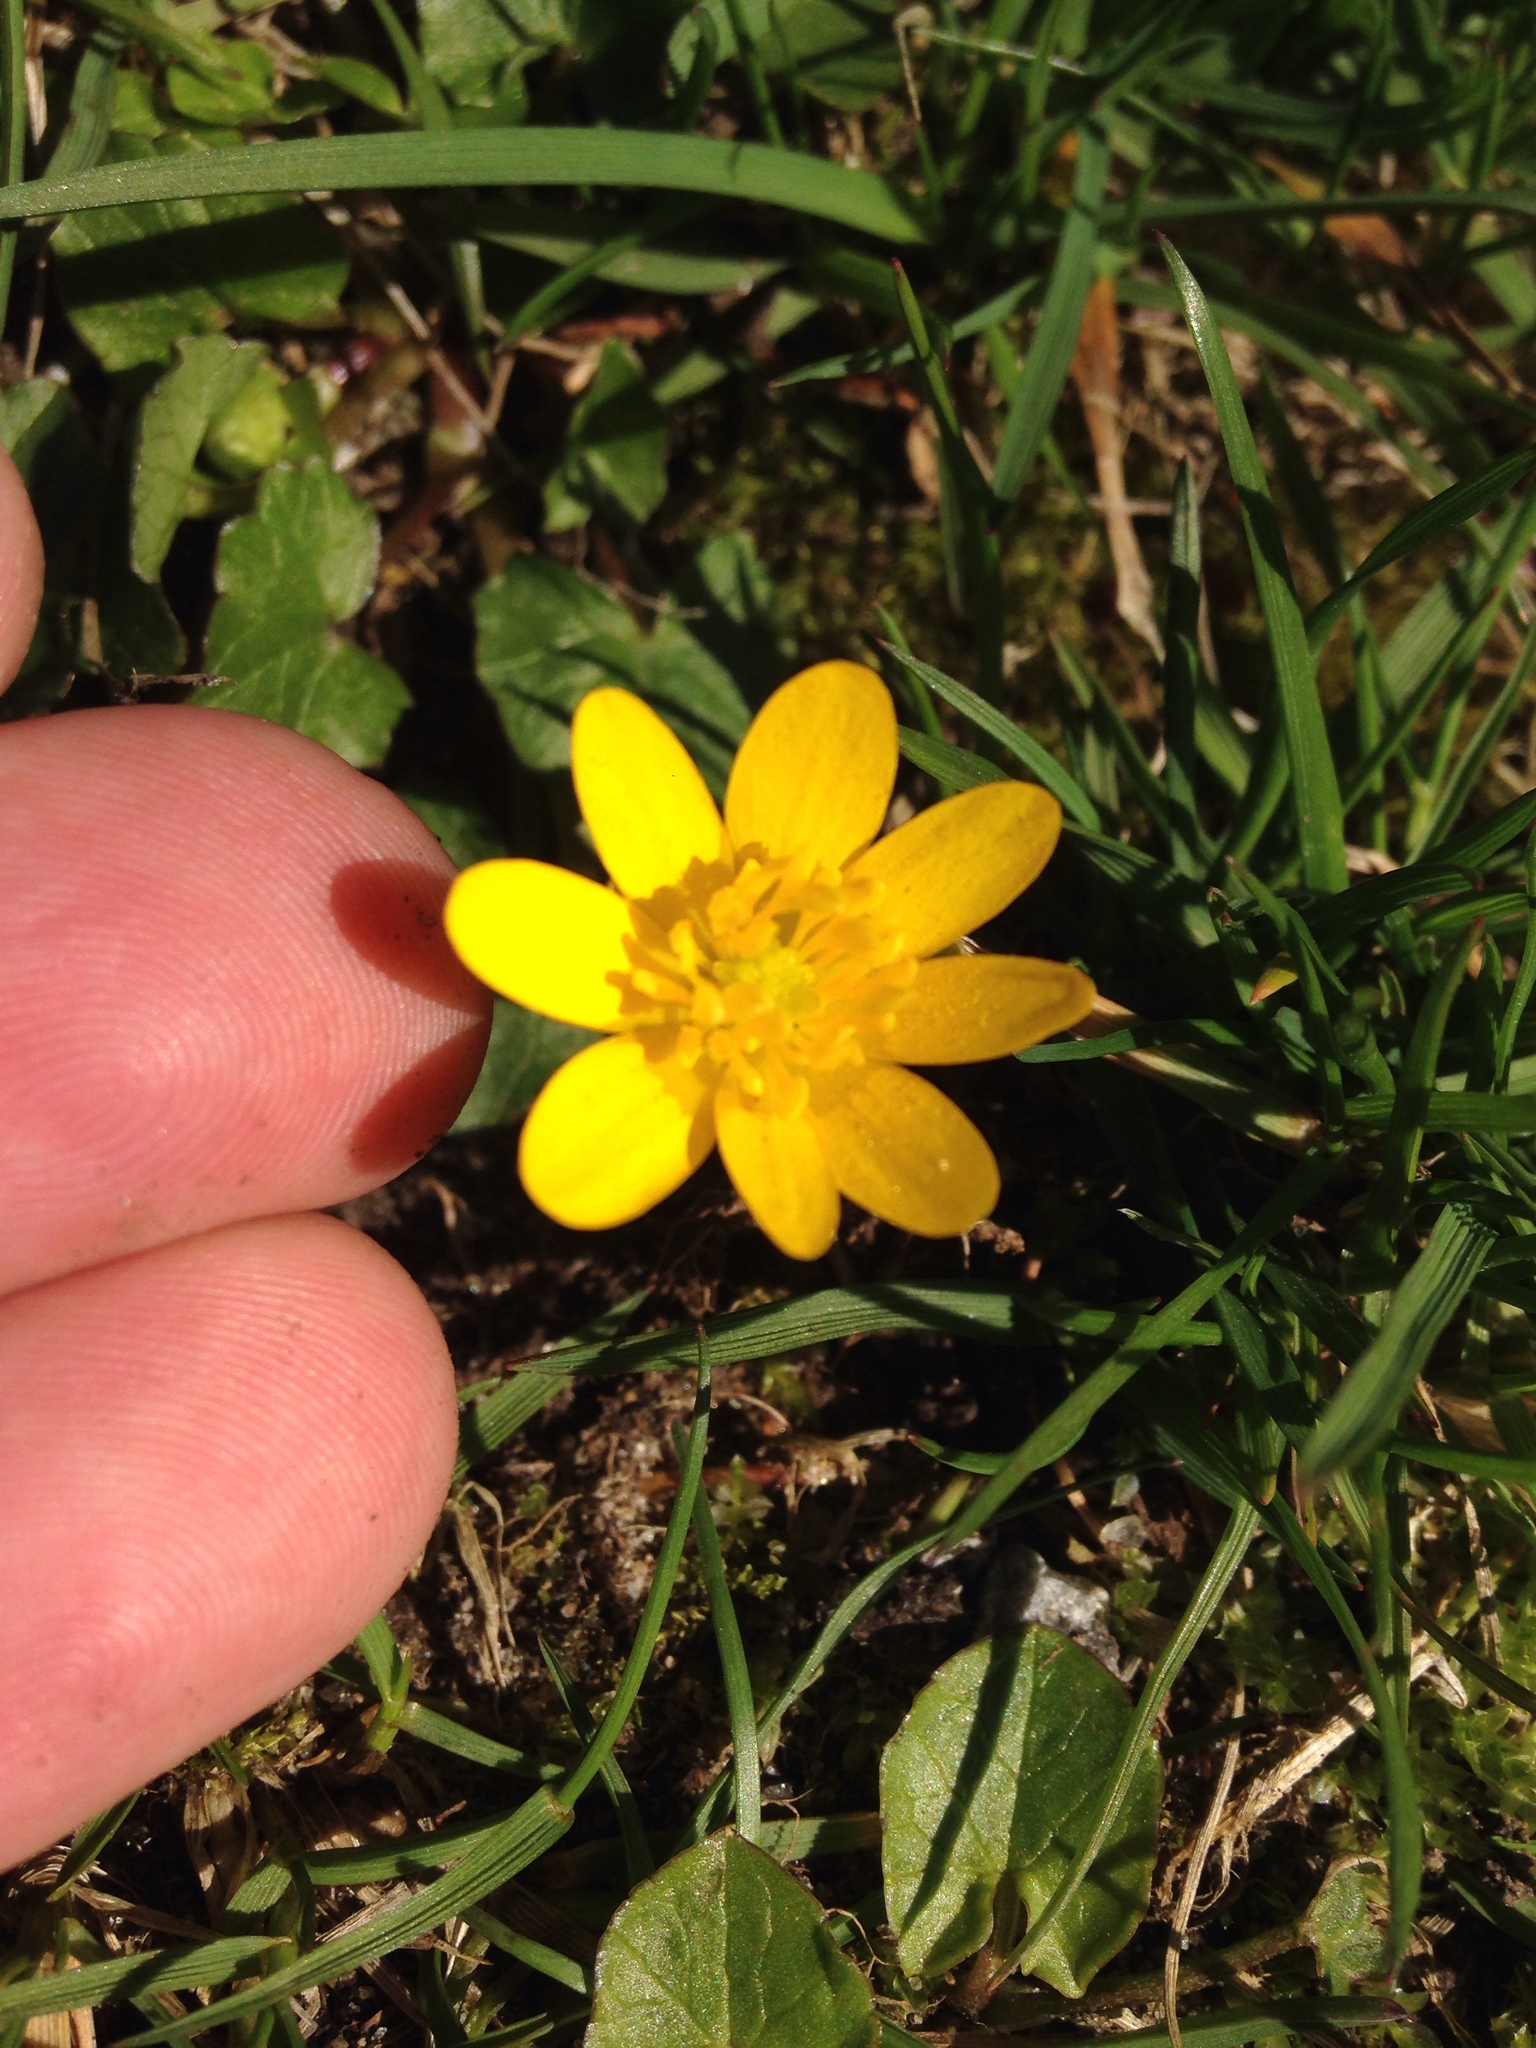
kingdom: Plantae
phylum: Tracheophyta
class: Magnoliopsida
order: Ranunculales
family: Ranunculaceae
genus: Ficaria
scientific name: Ficaria verna
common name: Lesser celandine
